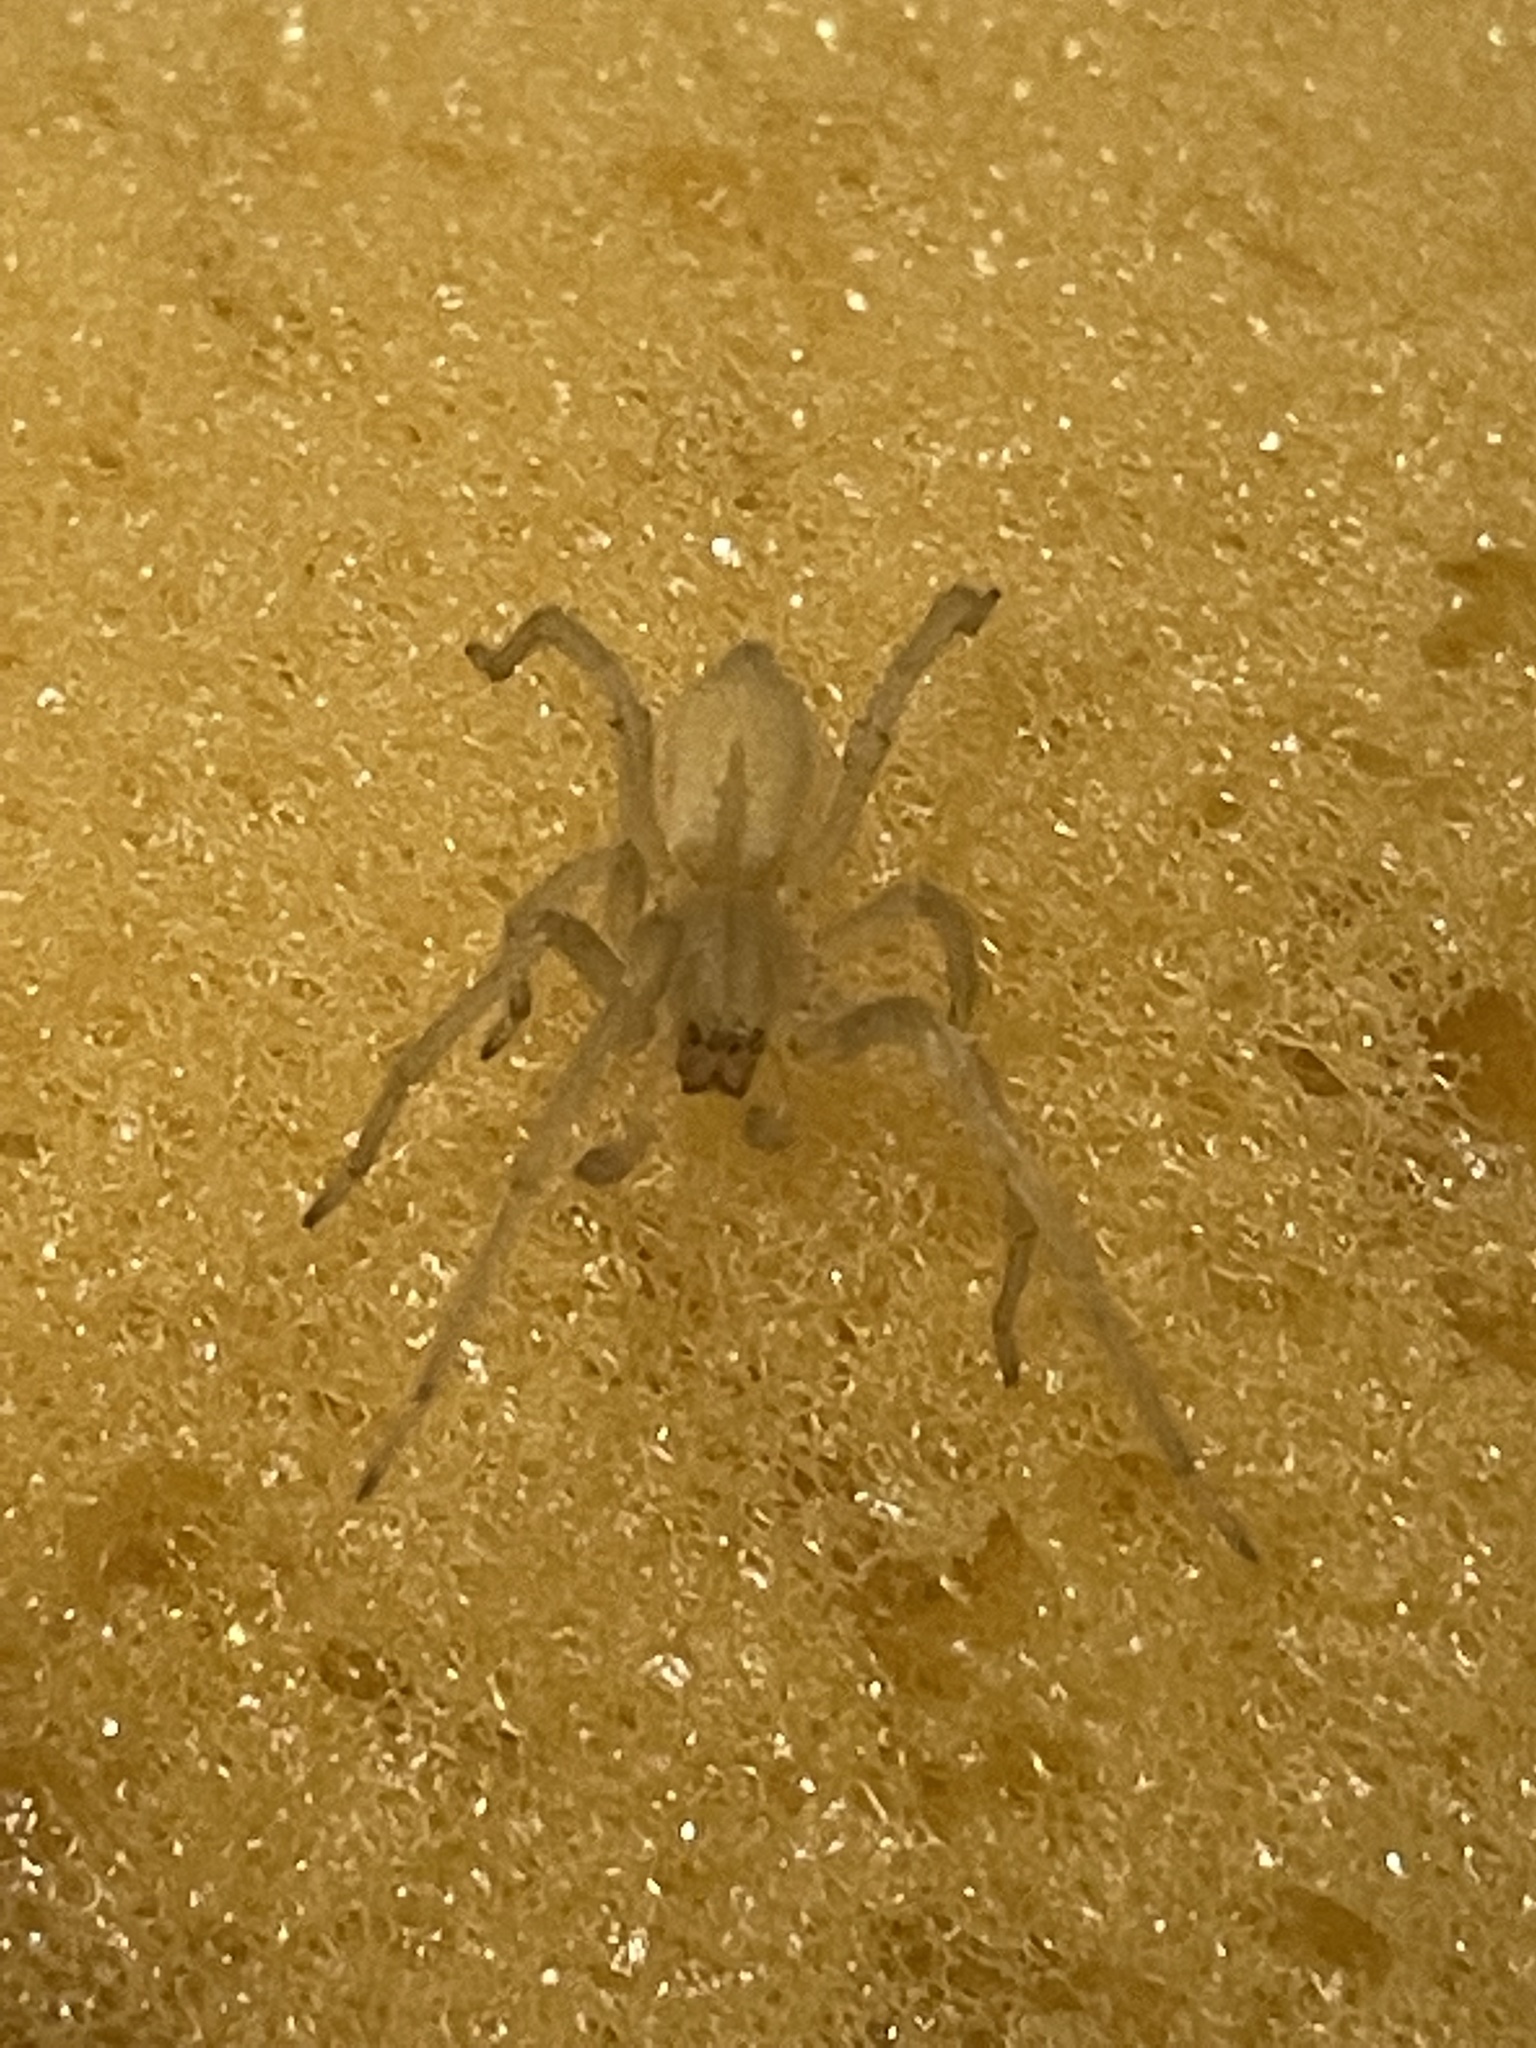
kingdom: Animalia
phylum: Arthropoda
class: Arachnida
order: Araneae
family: Cheiracanthiidae
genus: Cheiracanthium
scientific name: Cheiracanthium mildei
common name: Northern yellow sac spider
